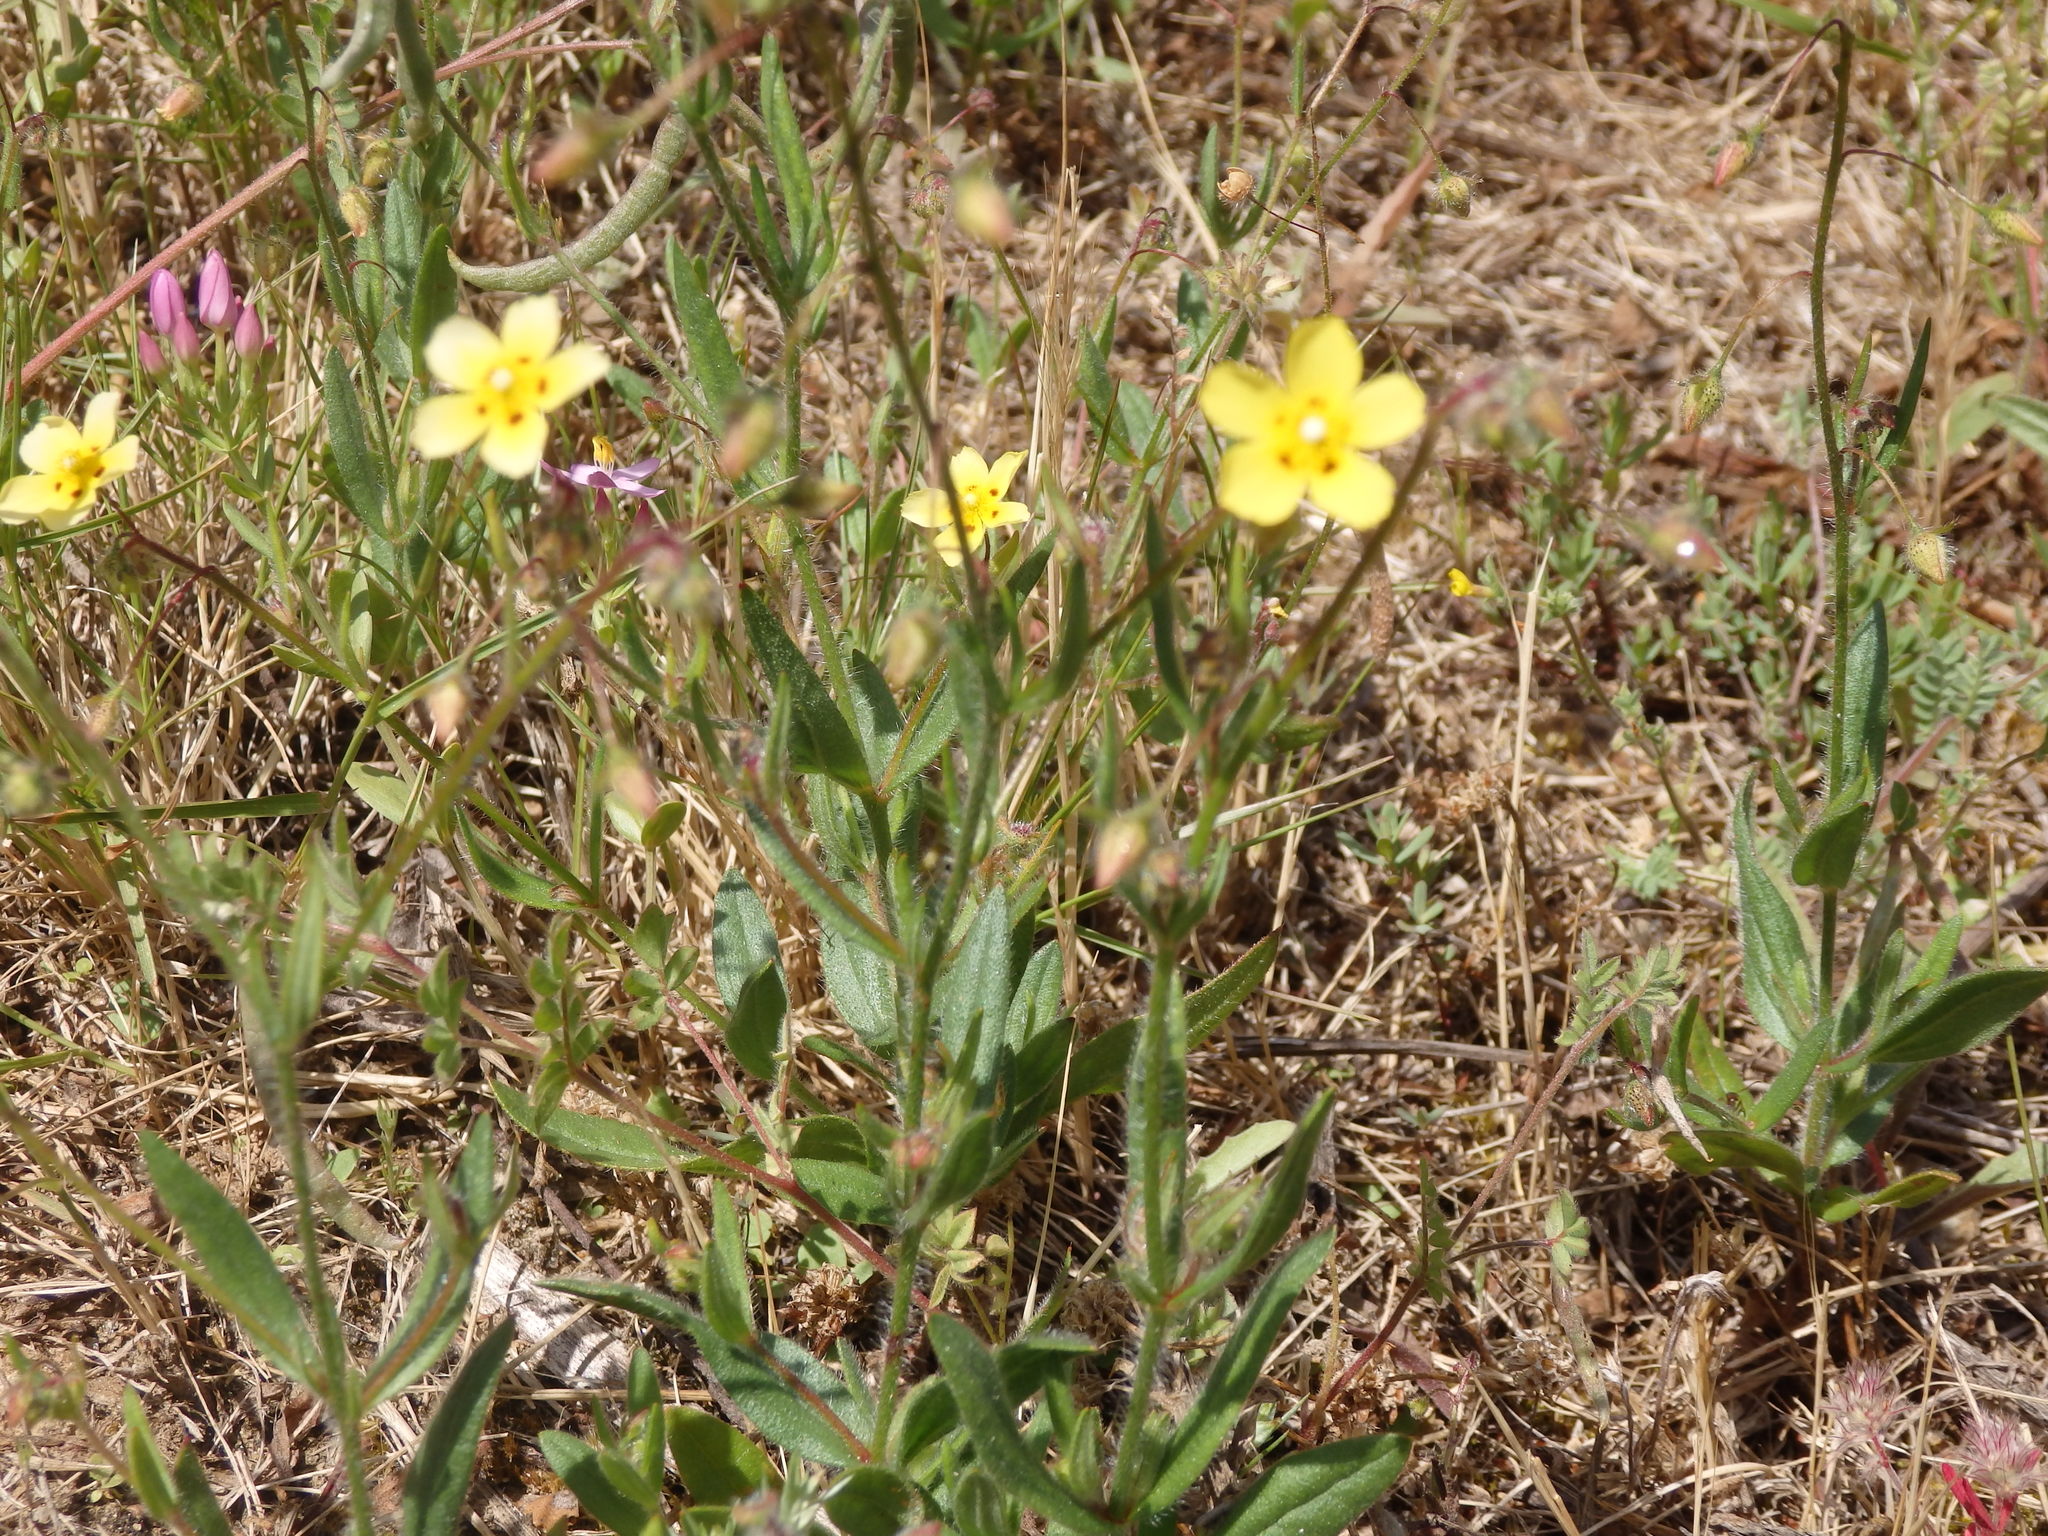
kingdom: Plantae
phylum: Tracheophyta
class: Magnoliopsida
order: Malvales
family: Cistaceae
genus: Tuberaria
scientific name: Tuberaria guttata
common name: Spotted rock-rose
